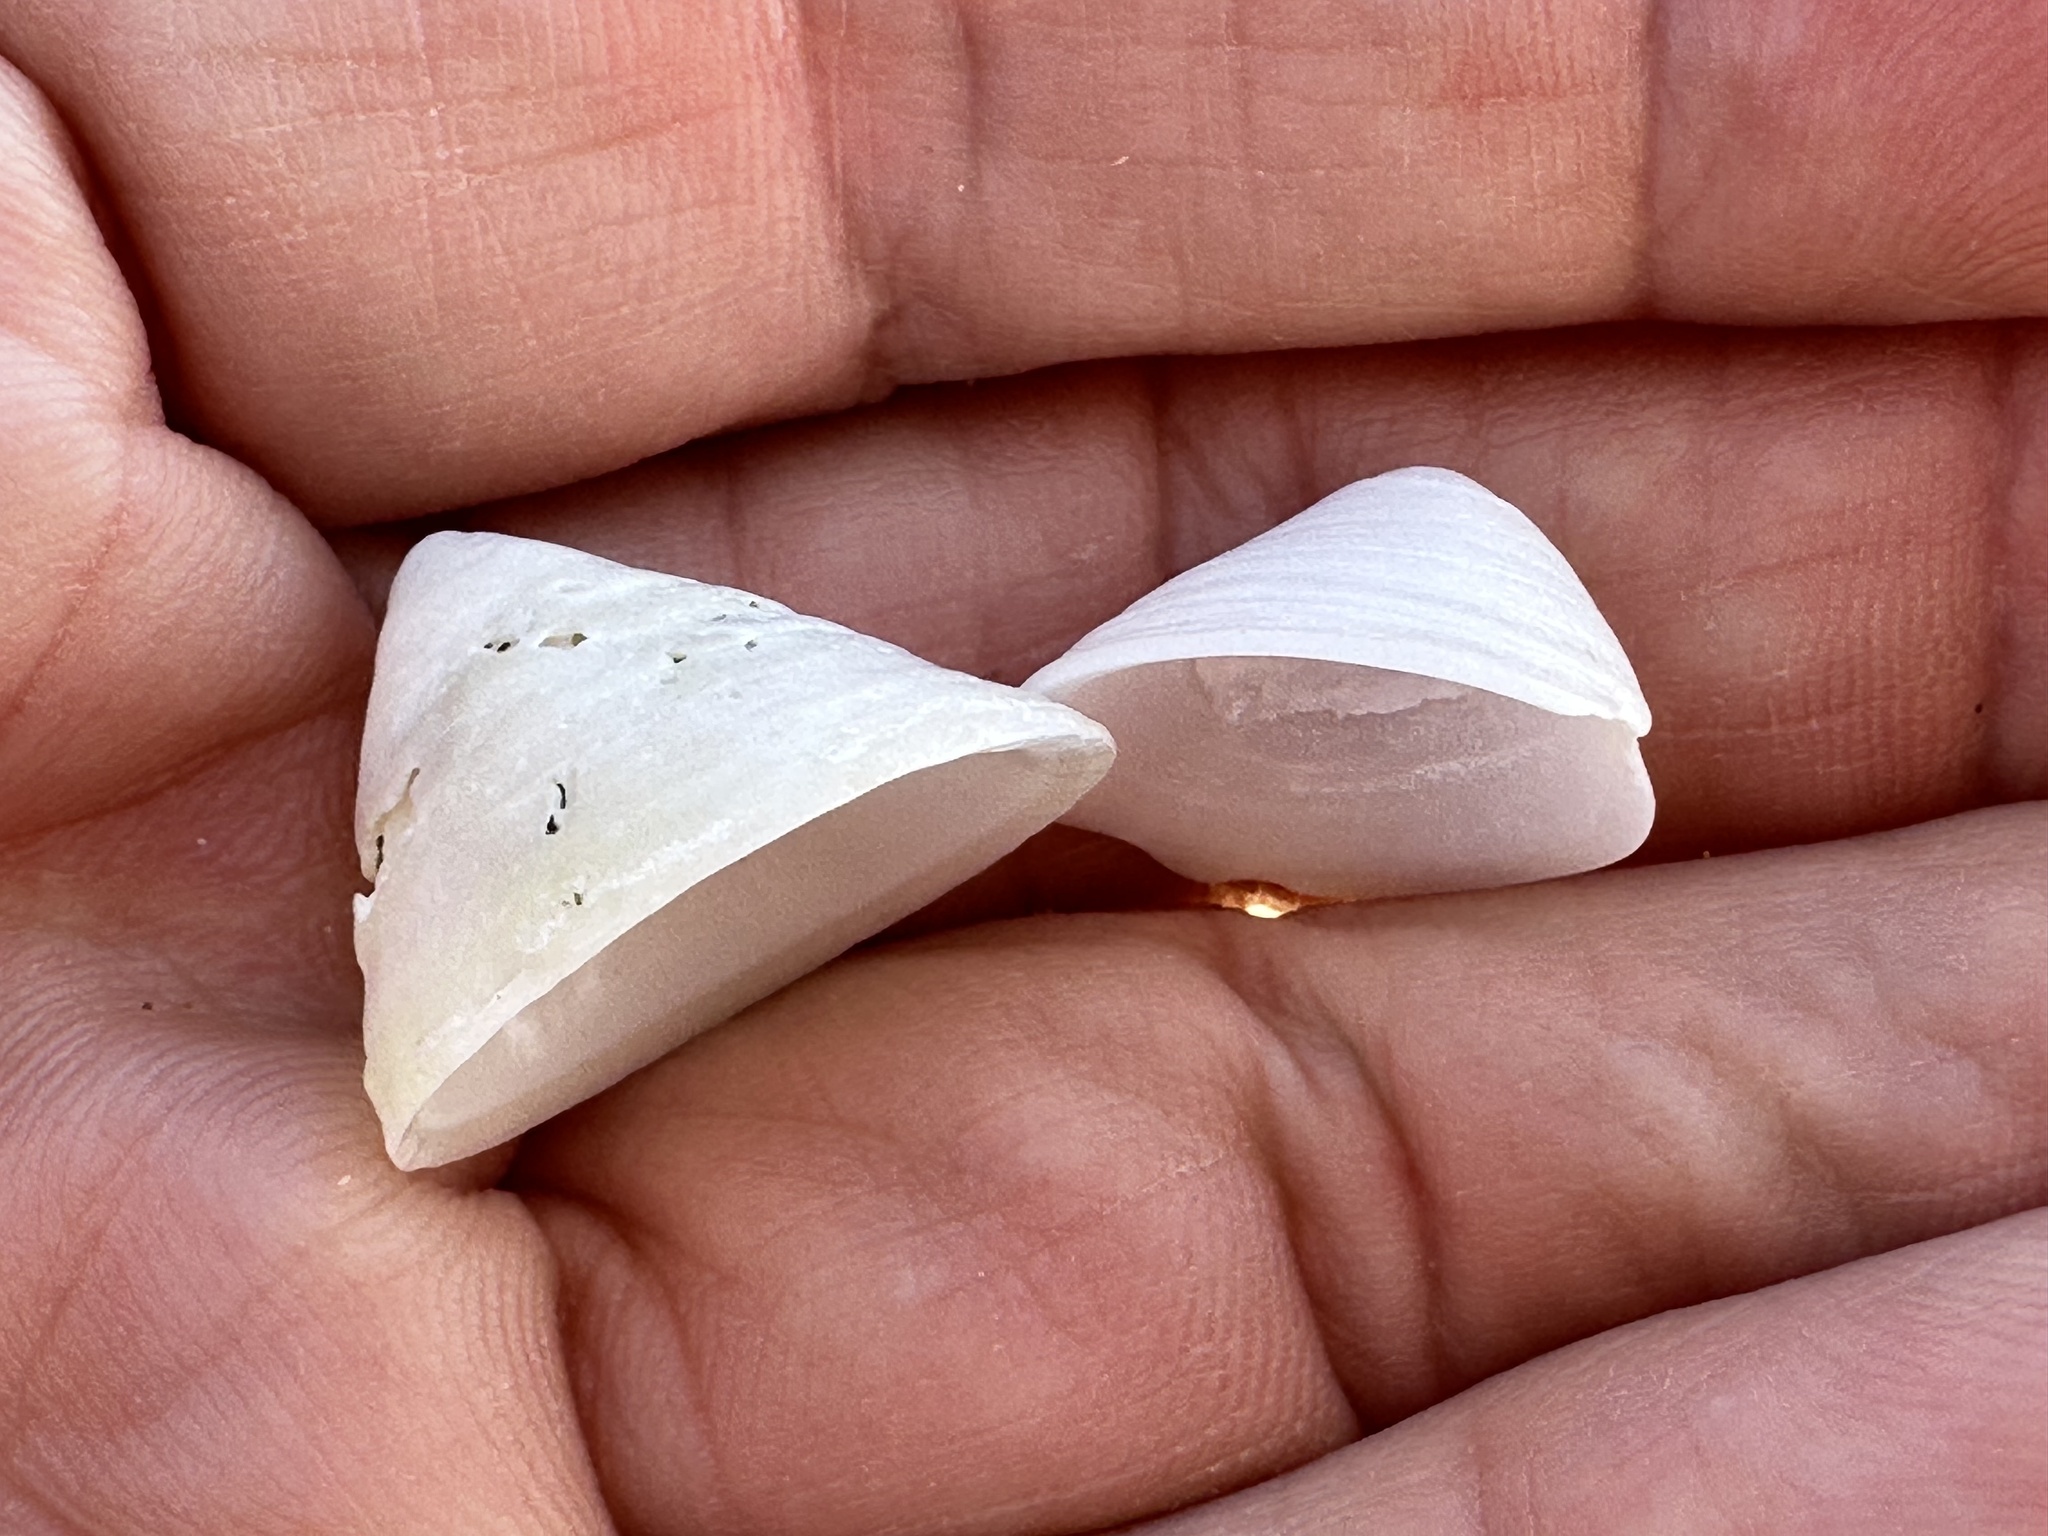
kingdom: Animalia
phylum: Mollusca
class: Gastropoda
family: Acmaeidae
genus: Acmaea
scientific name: Acmaea mitra
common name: Pacific white cap limpet
